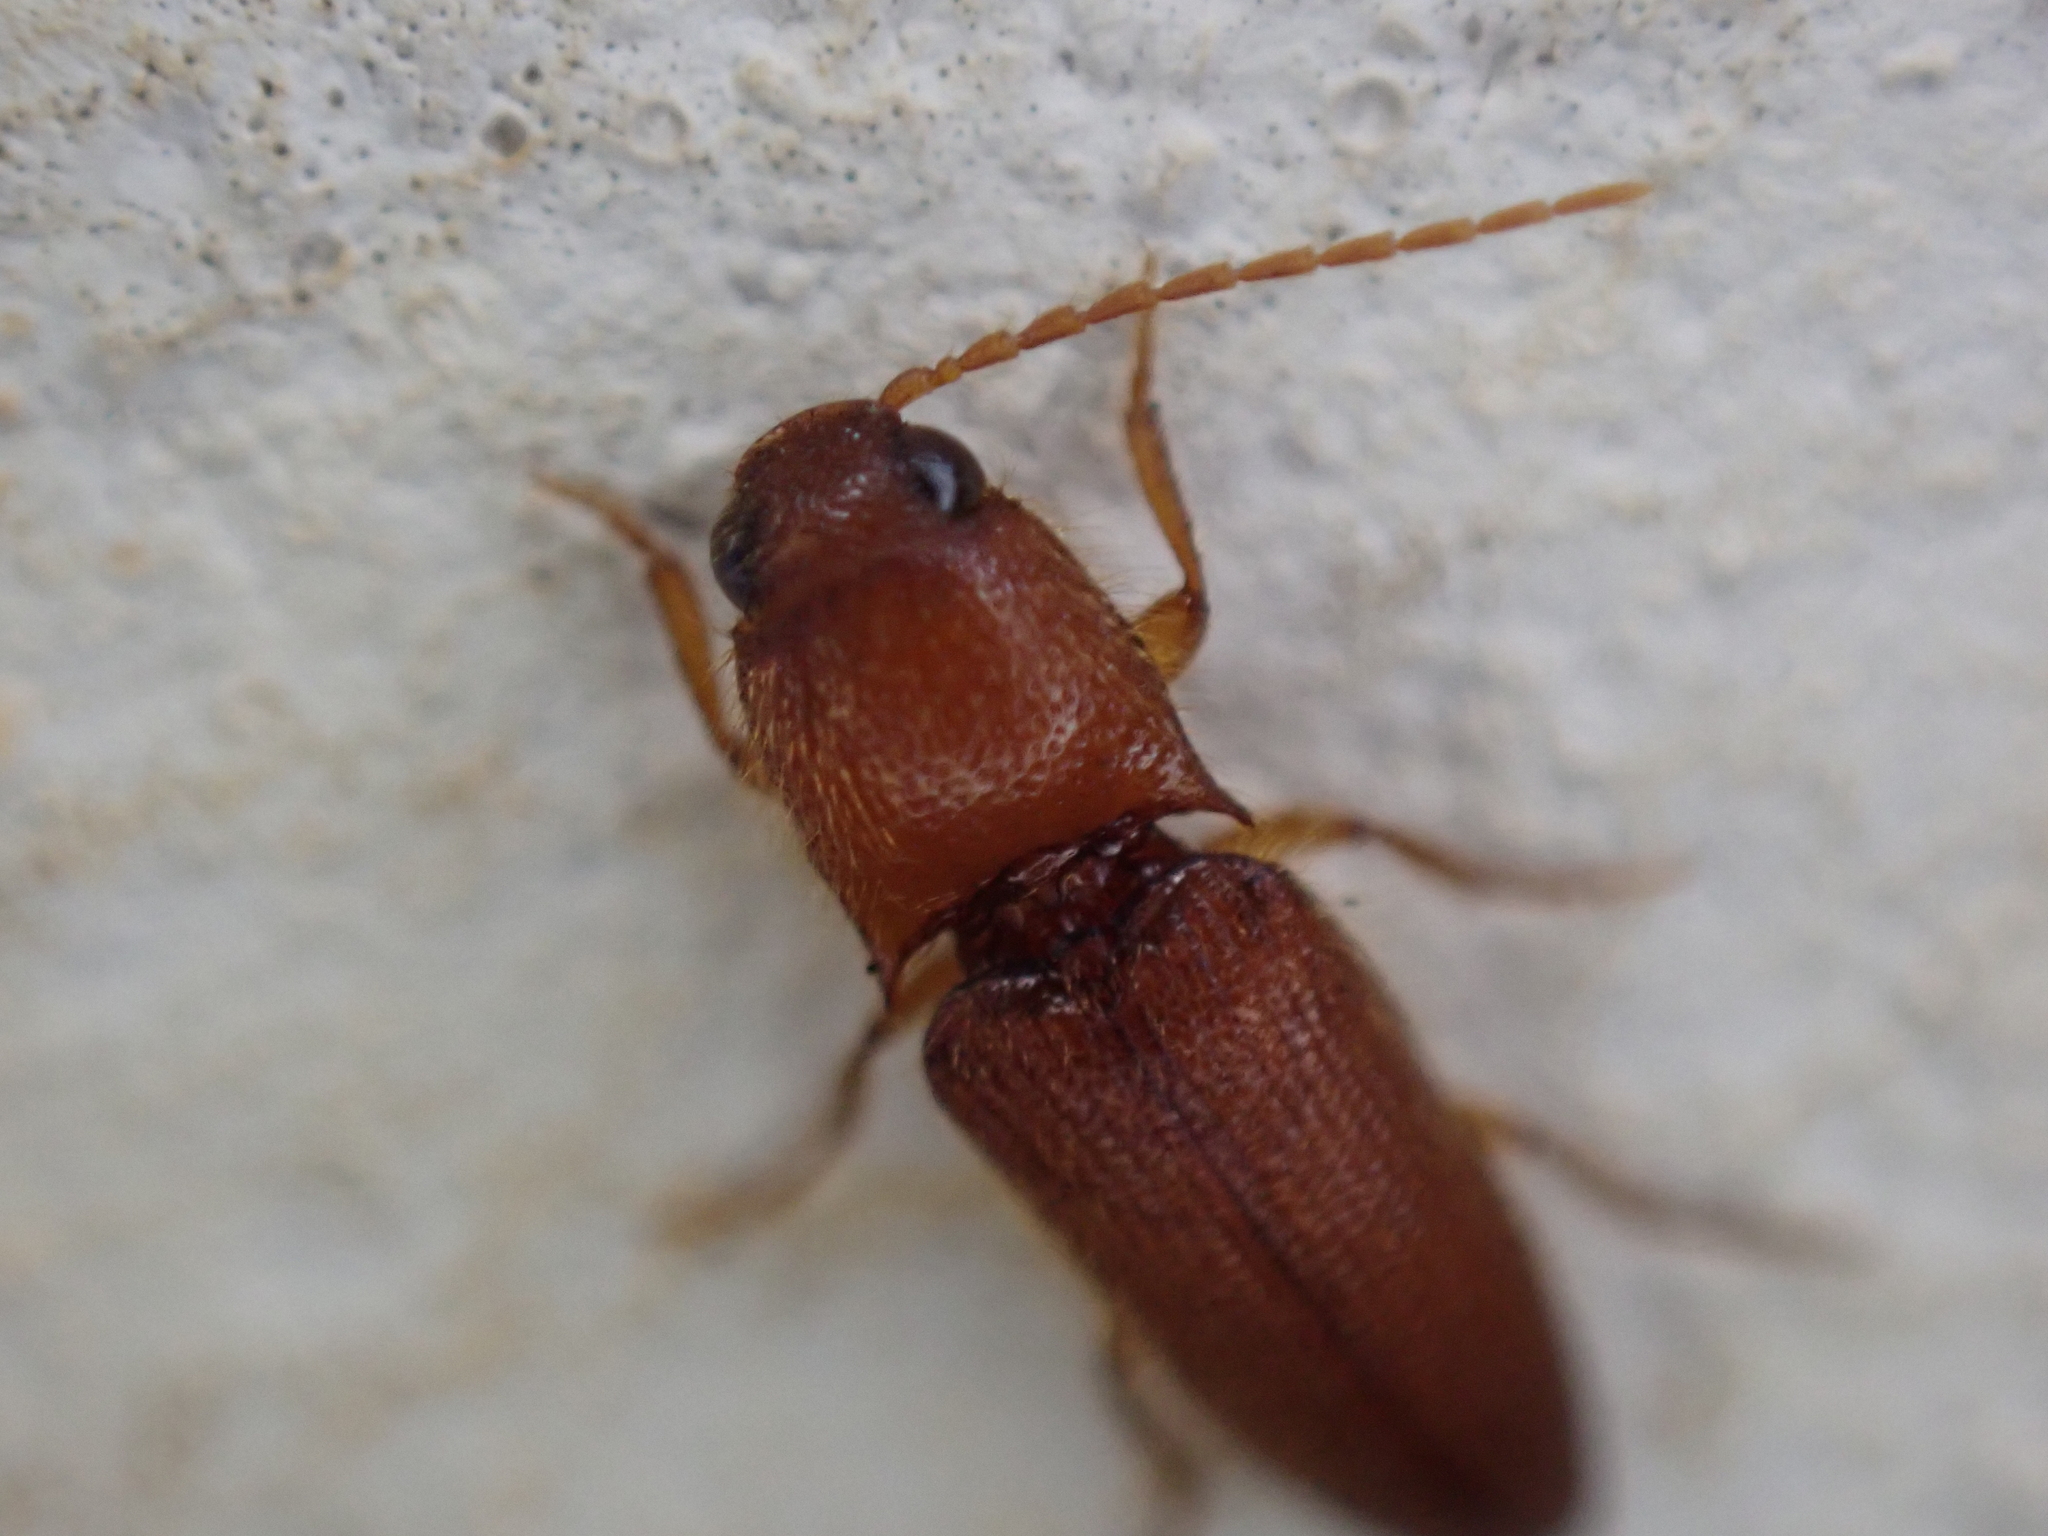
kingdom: Animalia
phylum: Arthropoda
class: Insecta
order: Coleoptera
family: Elateridae
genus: Dipropus
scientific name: Dipropus
